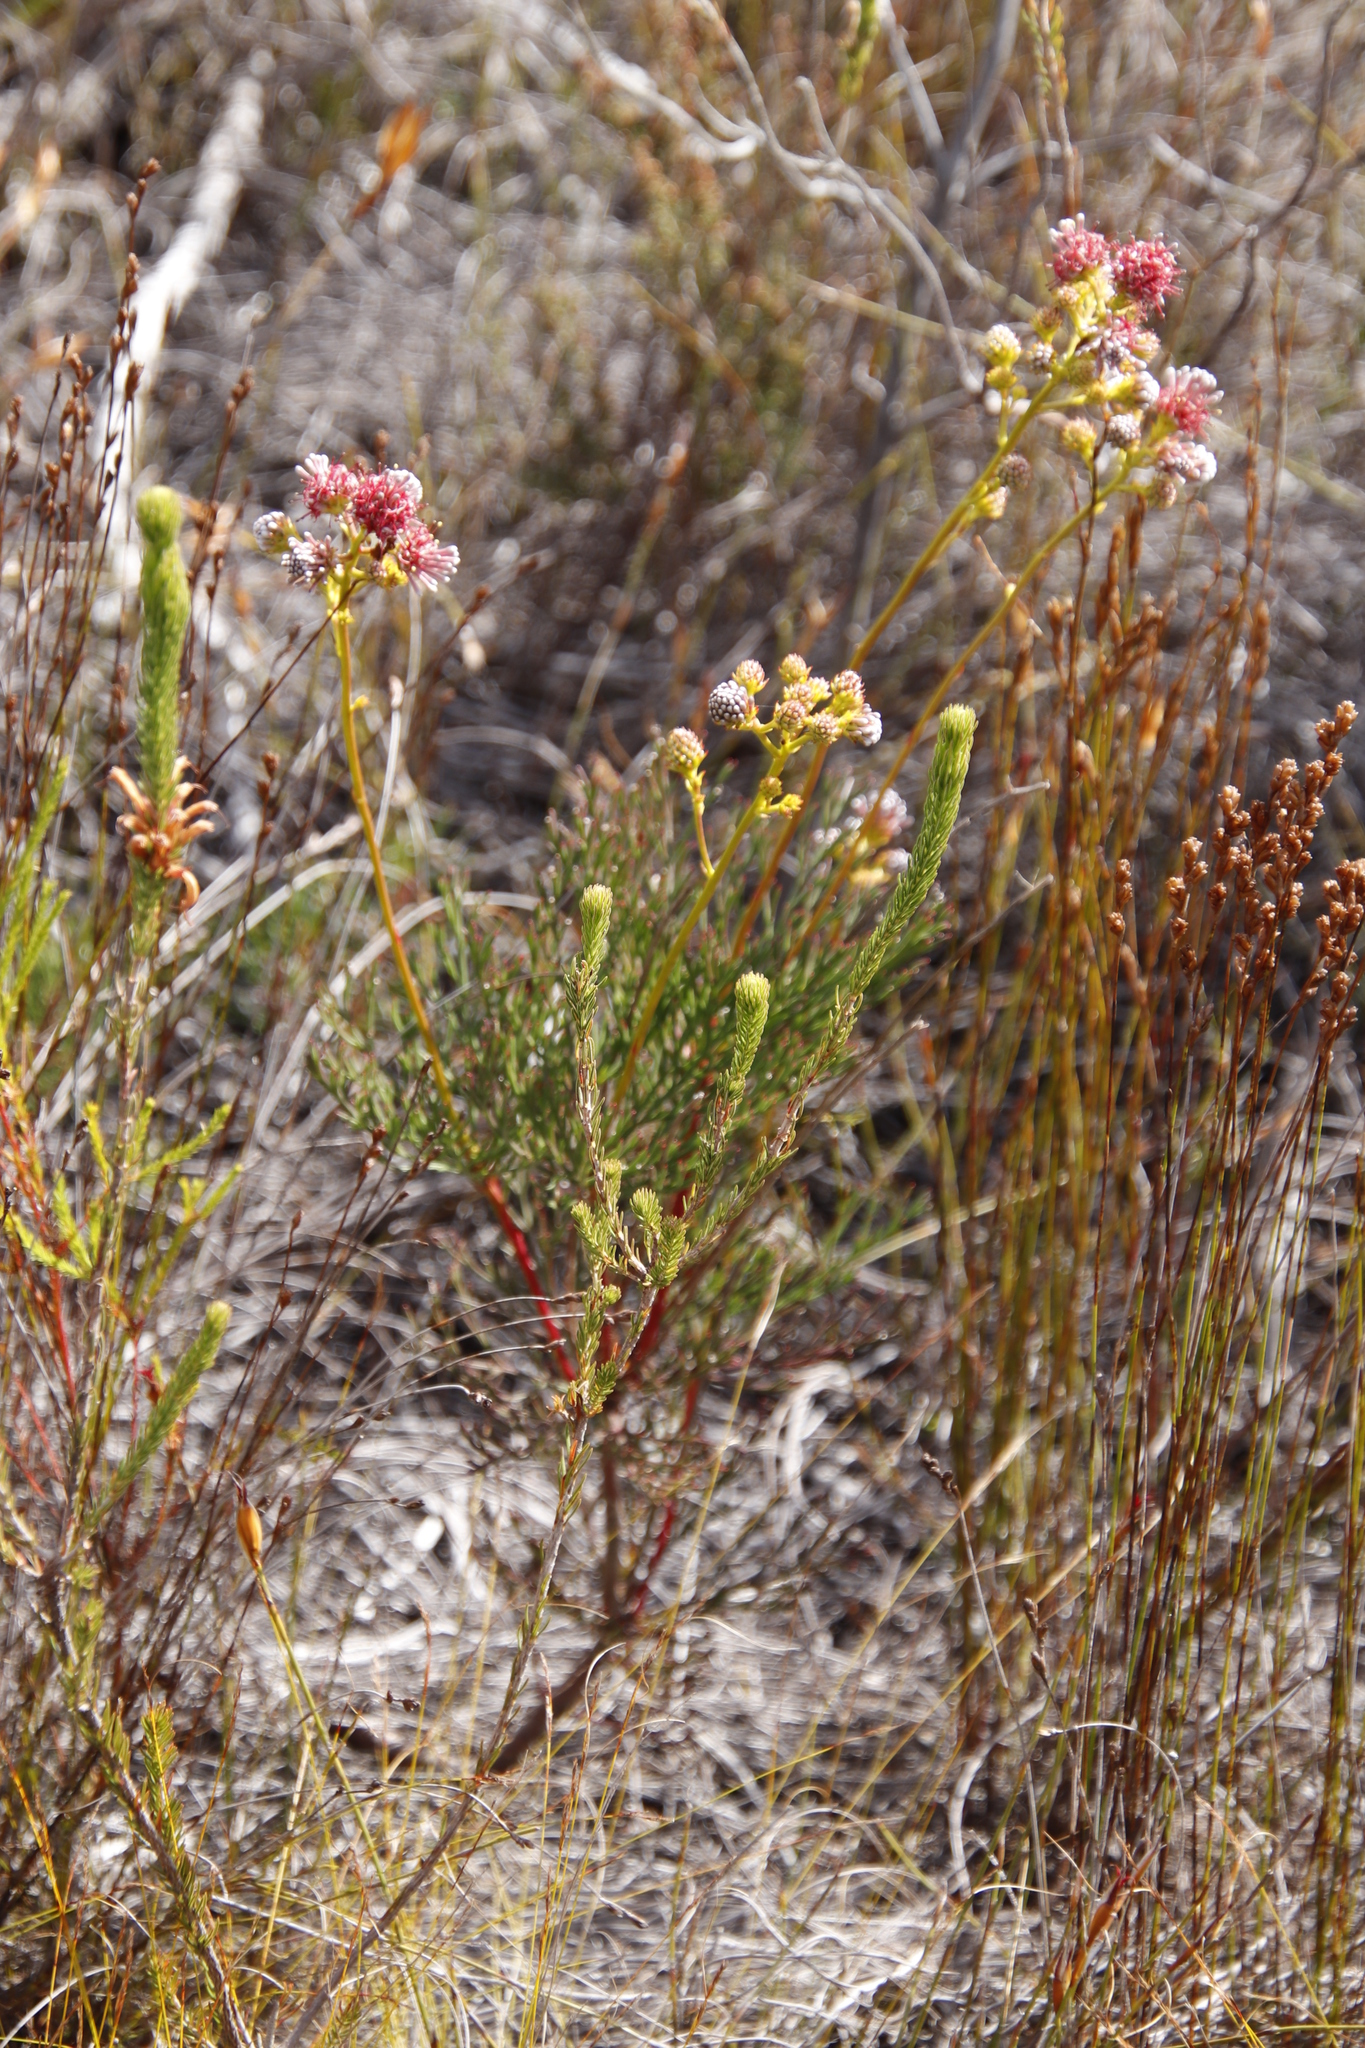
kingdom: Plantae
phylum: Tracheophyta
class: Magnoliopsida
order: Proteales
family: Proteaceae
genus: Serruria
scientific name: Serruria elongata
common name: Long-stalk spiderhead
